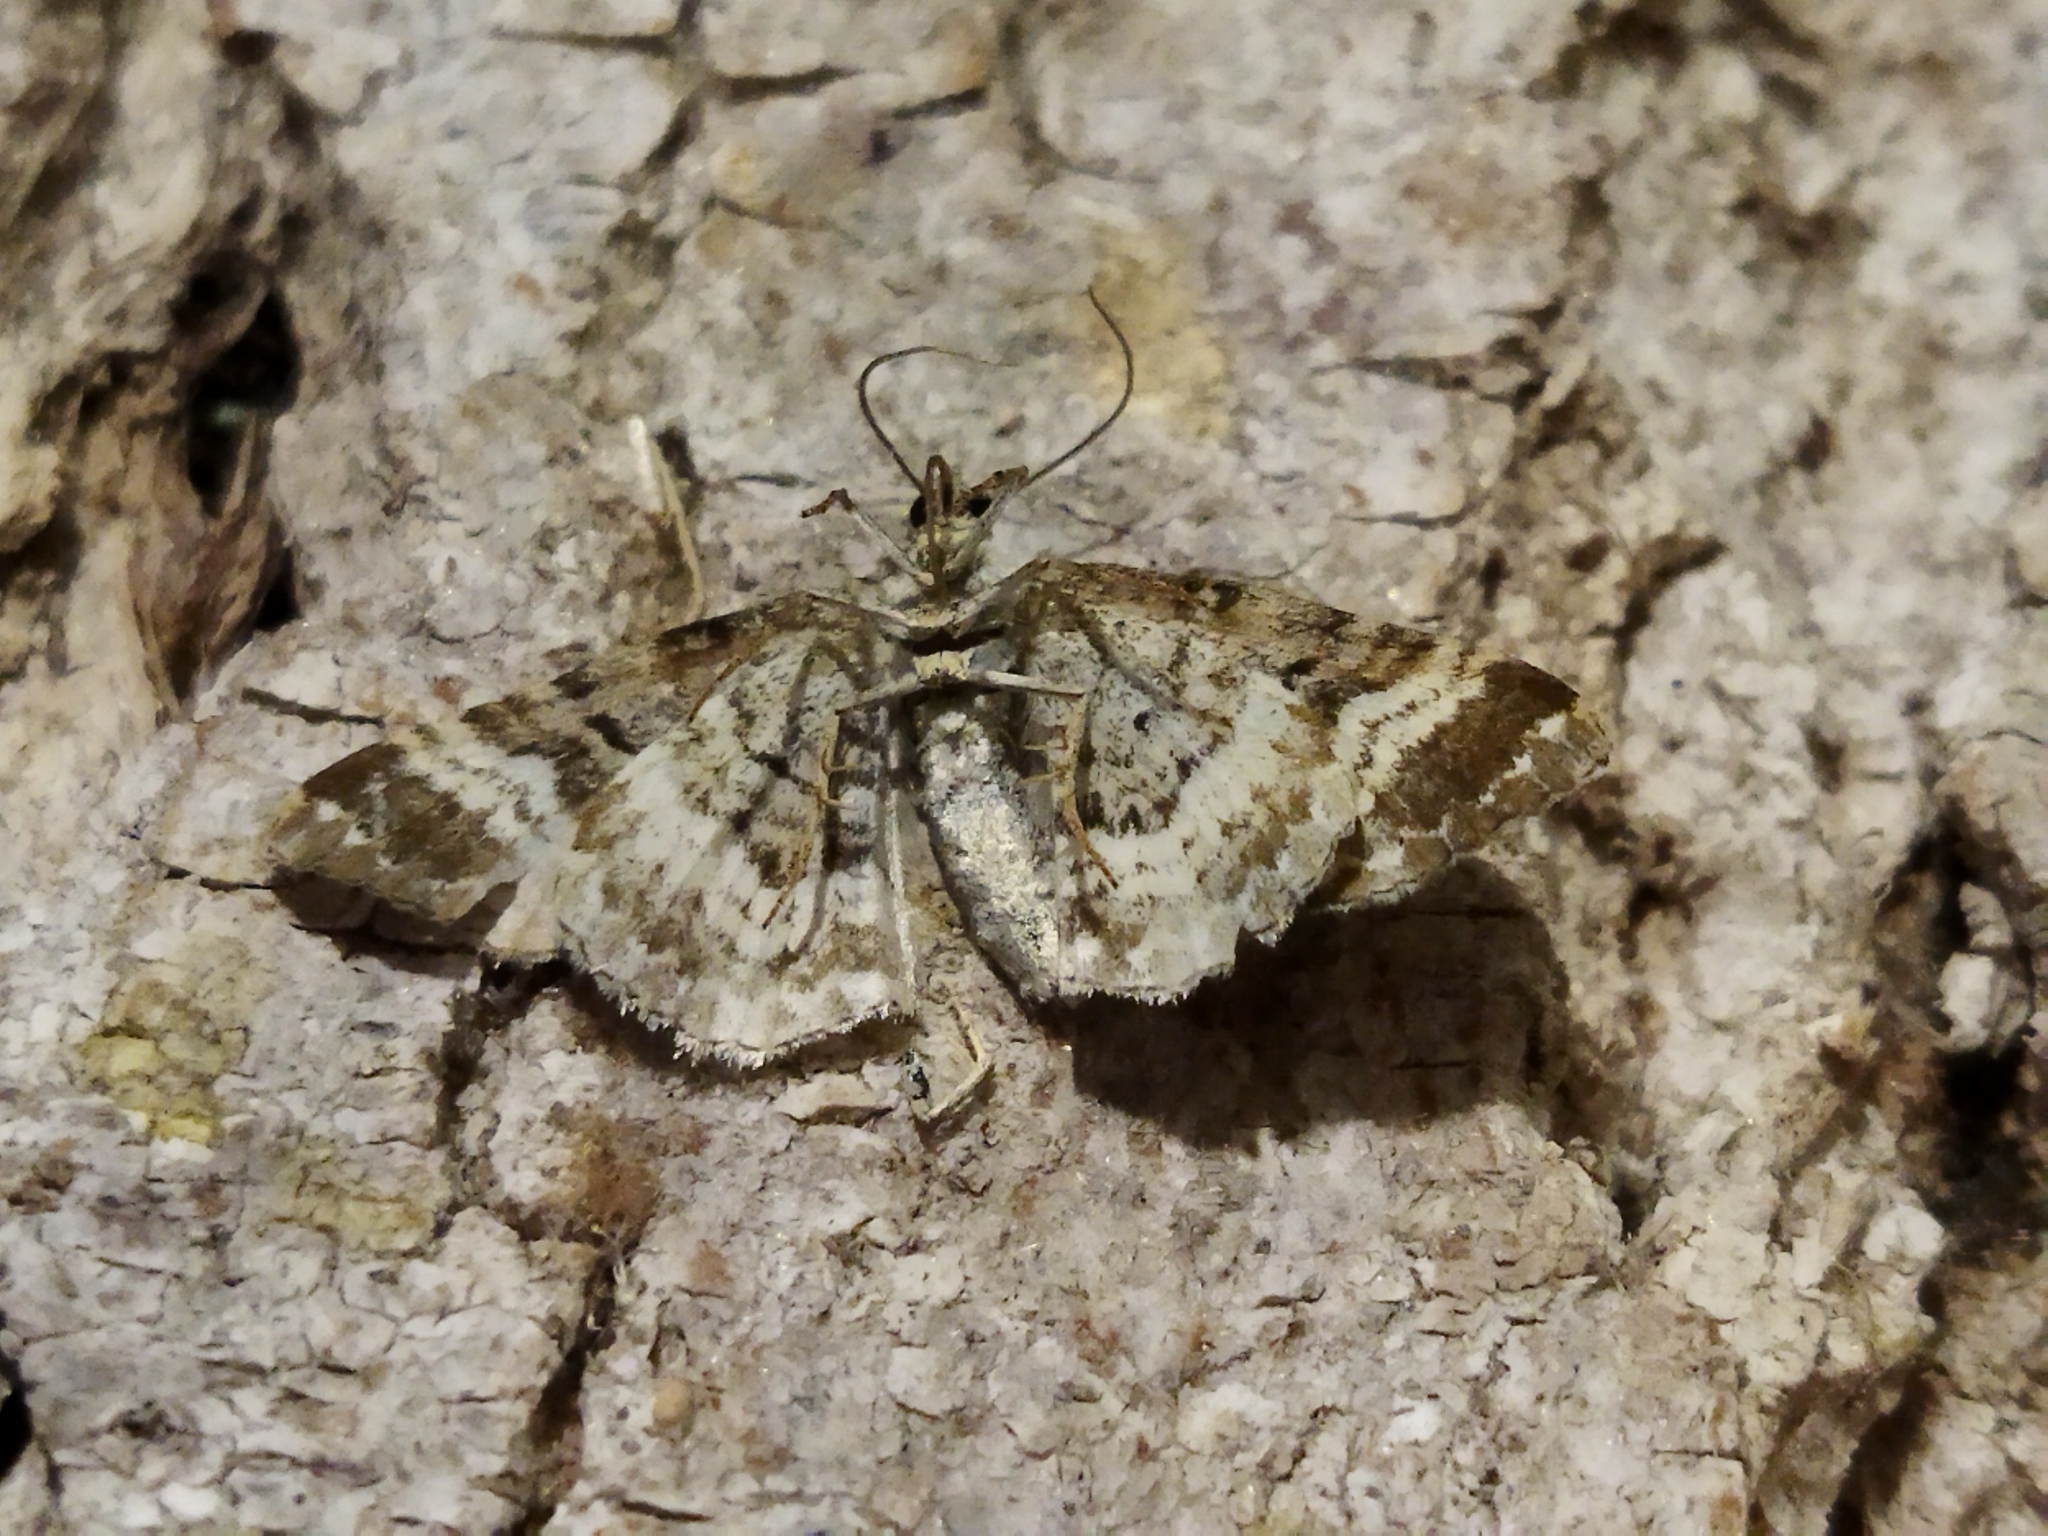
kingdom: Animalia
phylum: Arthropoda
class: Insecta
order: Lepidoptera
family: Geometridae
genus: Epirrhoe
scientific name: Epirrhoe alternata
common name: Common carpet
